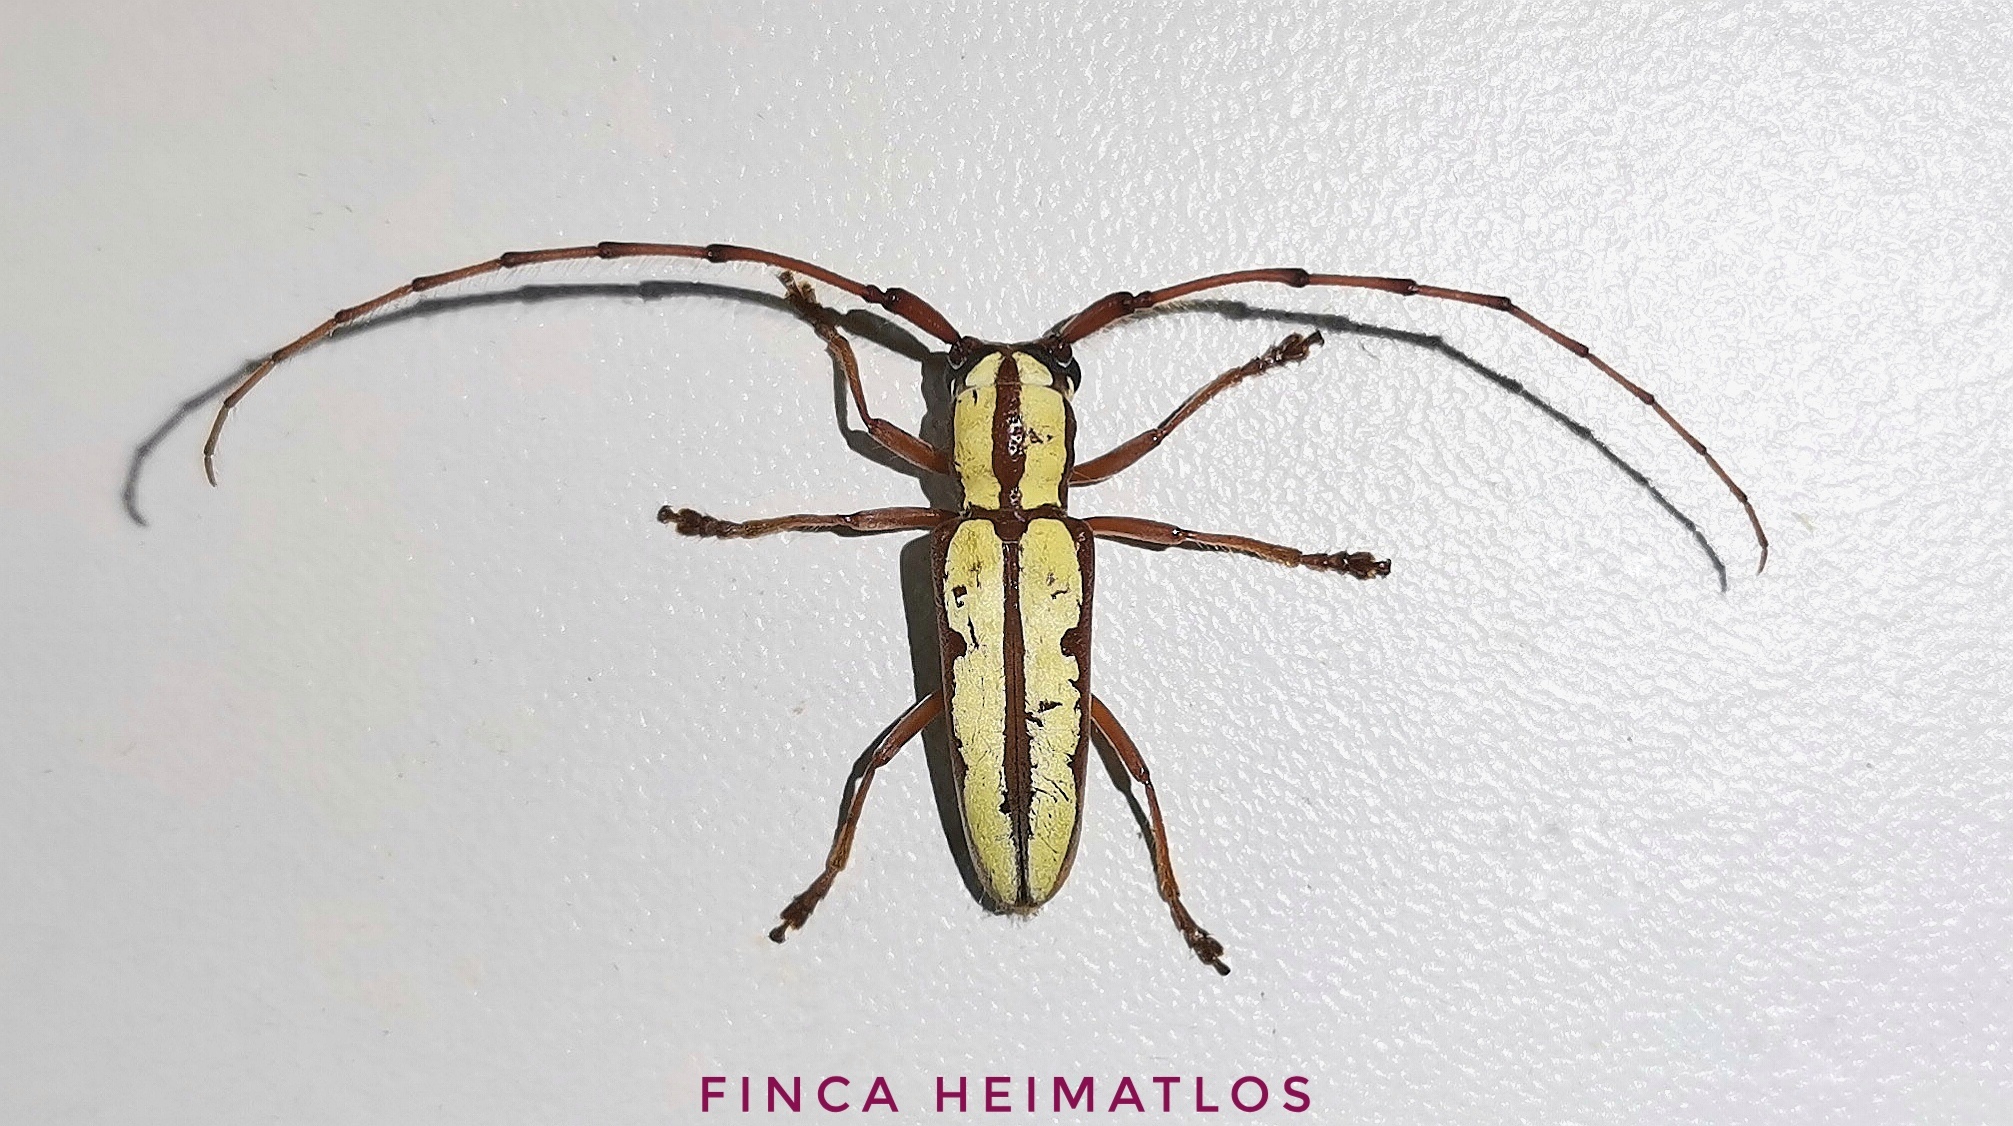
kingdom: Animalia
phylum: Arthropoda
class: Insecta
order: Coleoptera
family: Cerambycidae
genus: Phoebemima
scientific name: Phoebemima theaphia
